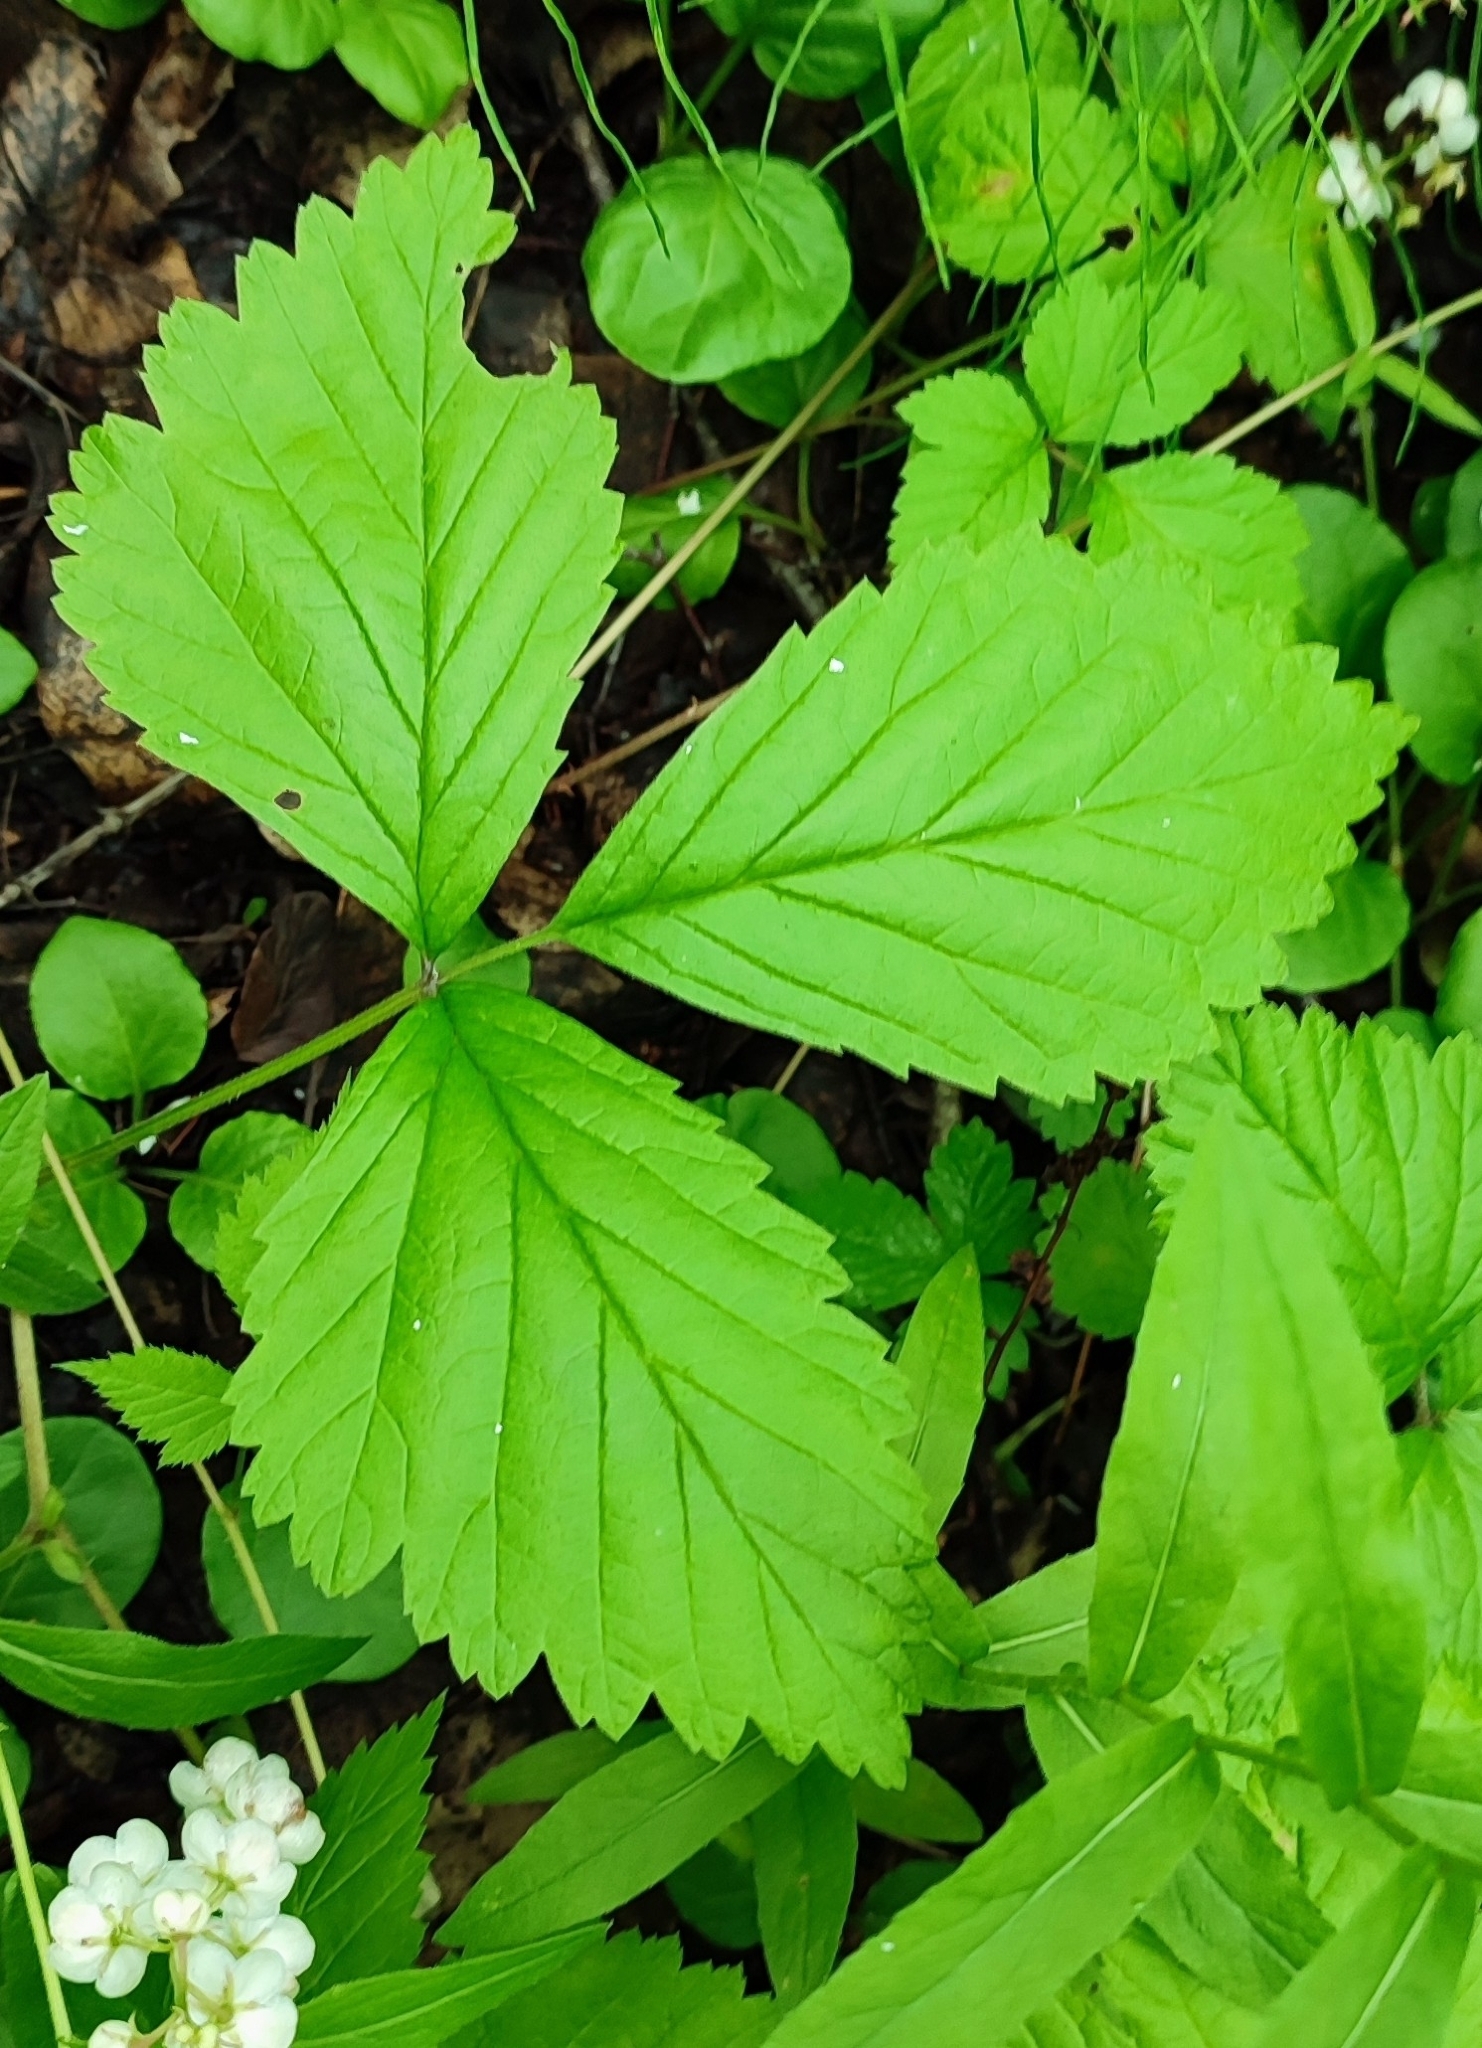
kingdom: Plantae
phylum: Tracheophyta
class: Magnoliopsida
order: Rosales
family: Rosaceae
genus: Rubus
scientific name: Rubus saxatilis
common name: Stone bramble
